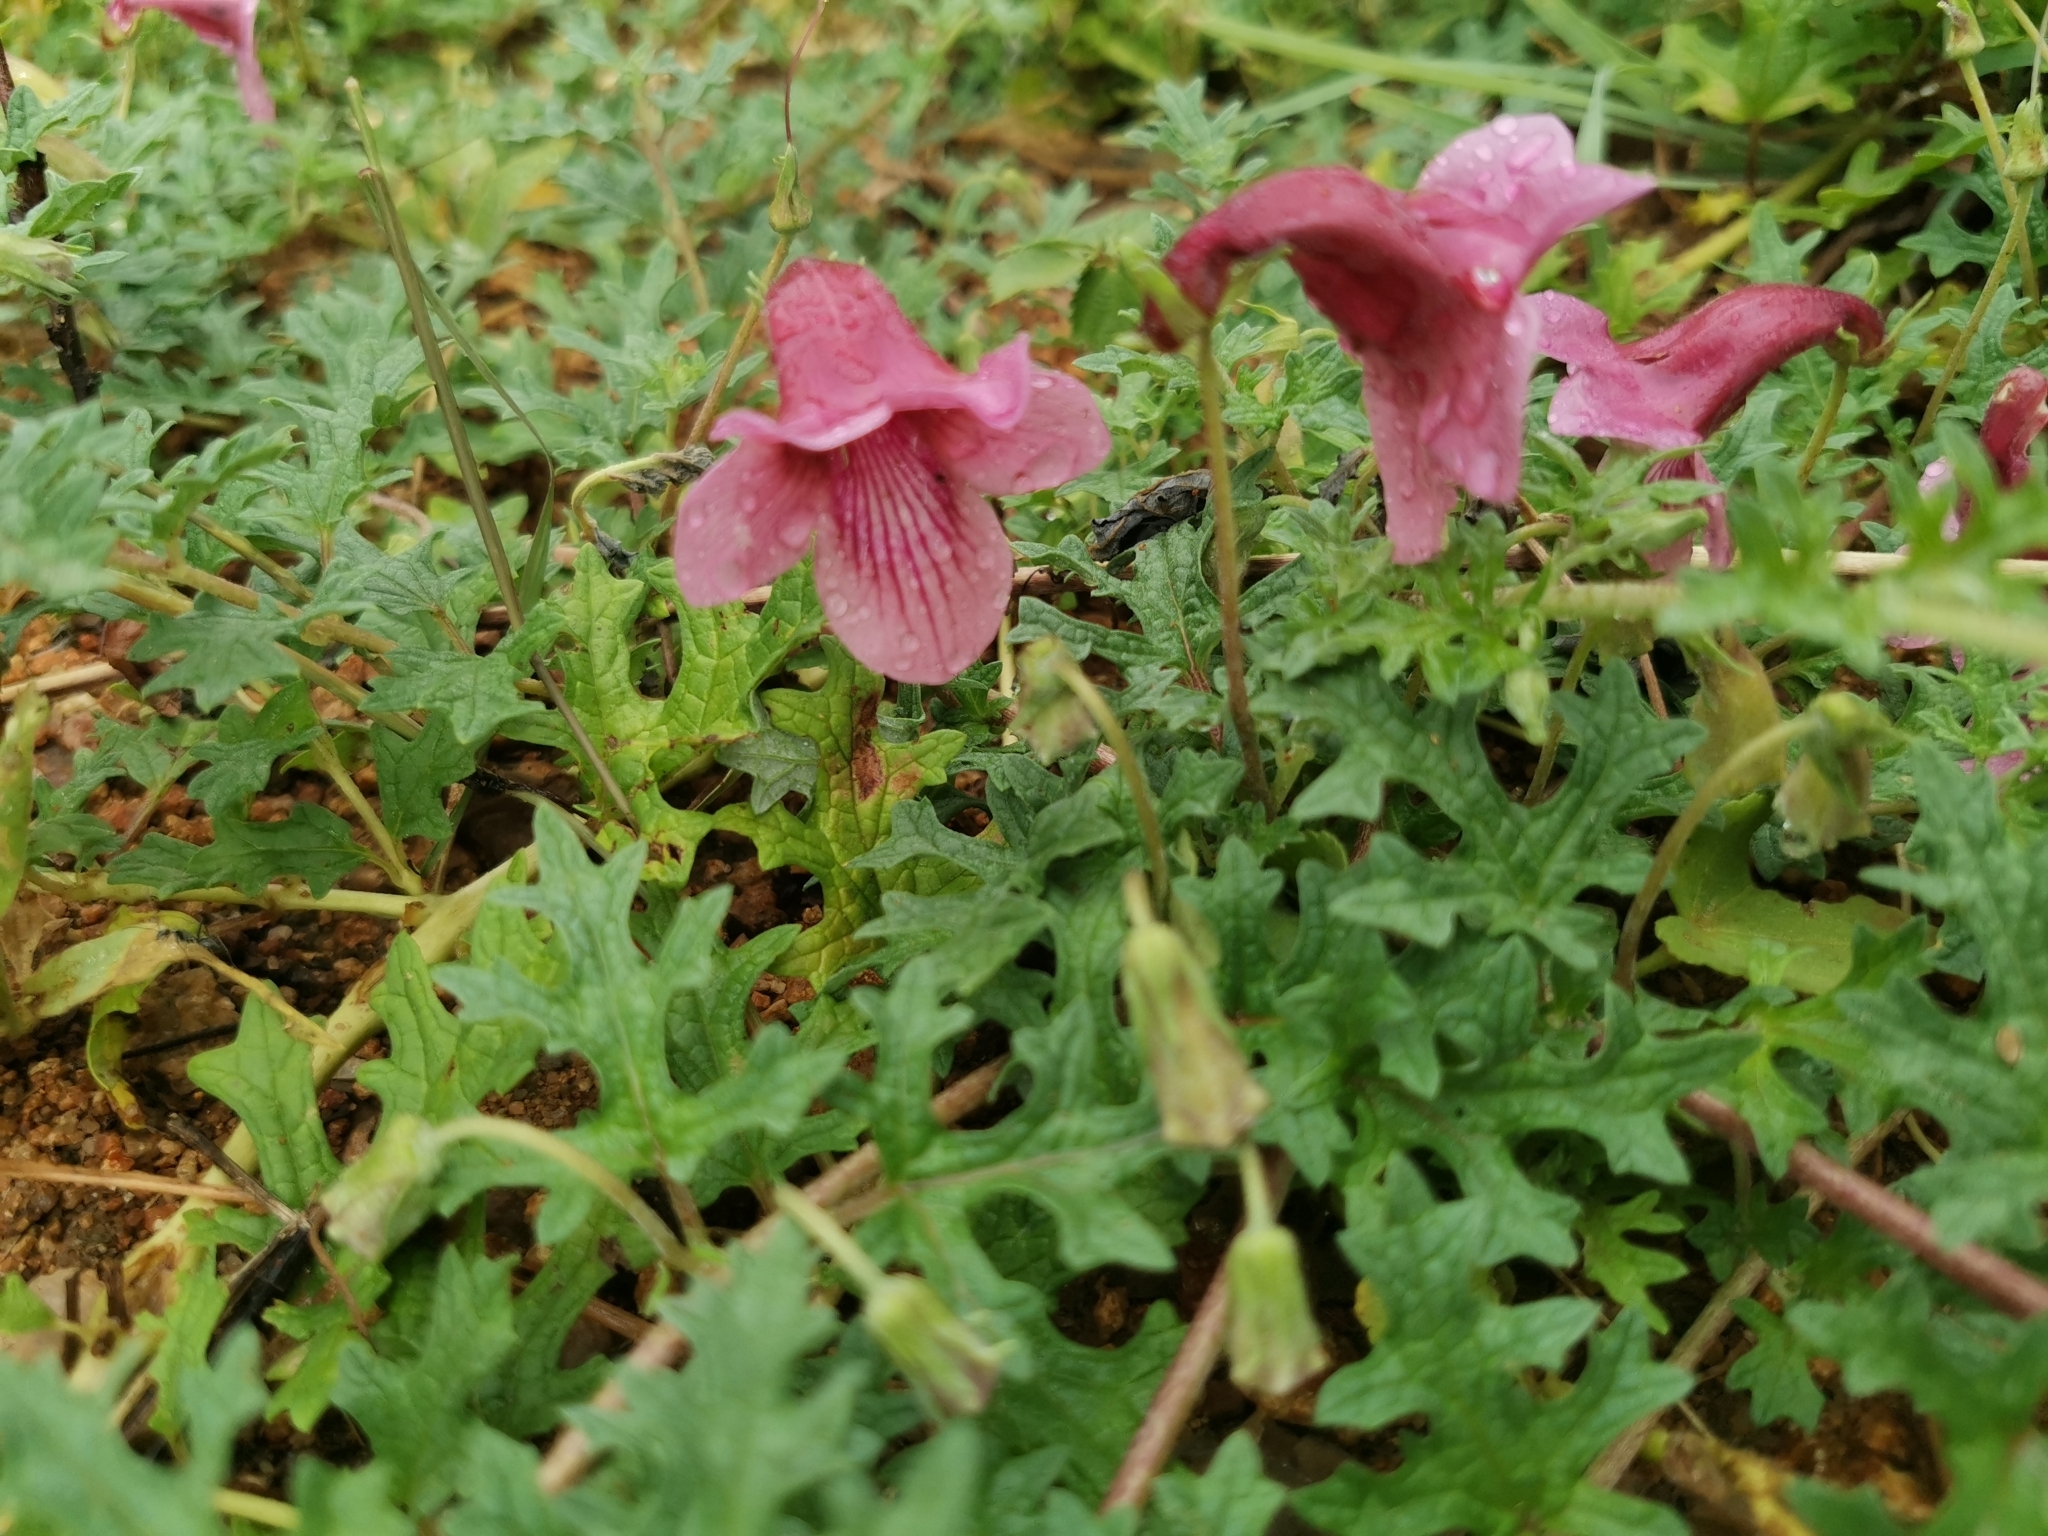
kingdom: Plantae
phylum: Tracheophyta
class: Magnoliopsida
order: Lamiales
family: Pedaliaceae
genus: Dicerocaryum
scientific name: Dicerocaryum senecioides
